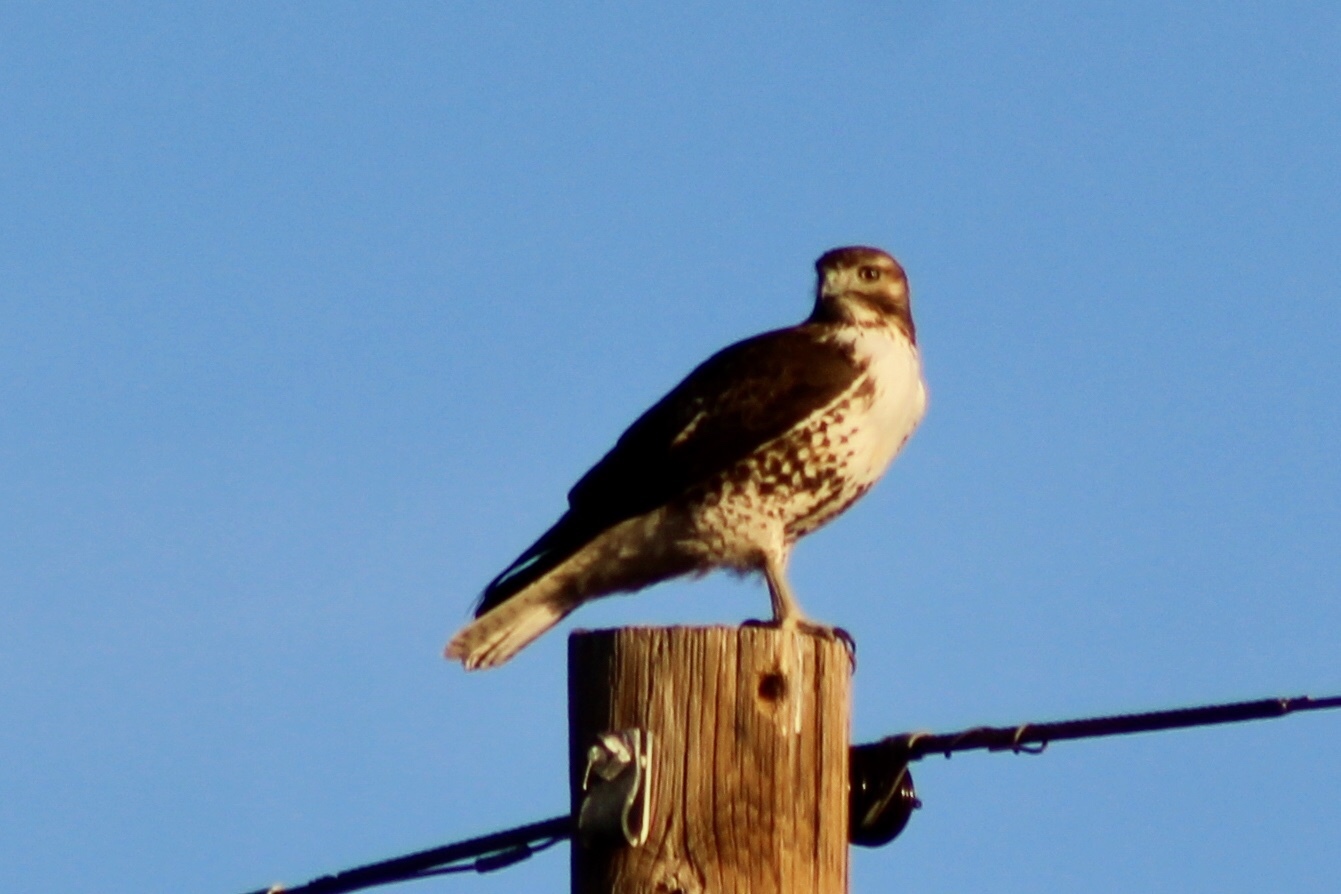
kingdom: Animalia
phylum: Chordata
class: Aves
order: Accipitriformes
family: Accipitridae
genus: Buteo
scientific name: Buteo jamaicensis
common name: Red-tailed hawk
